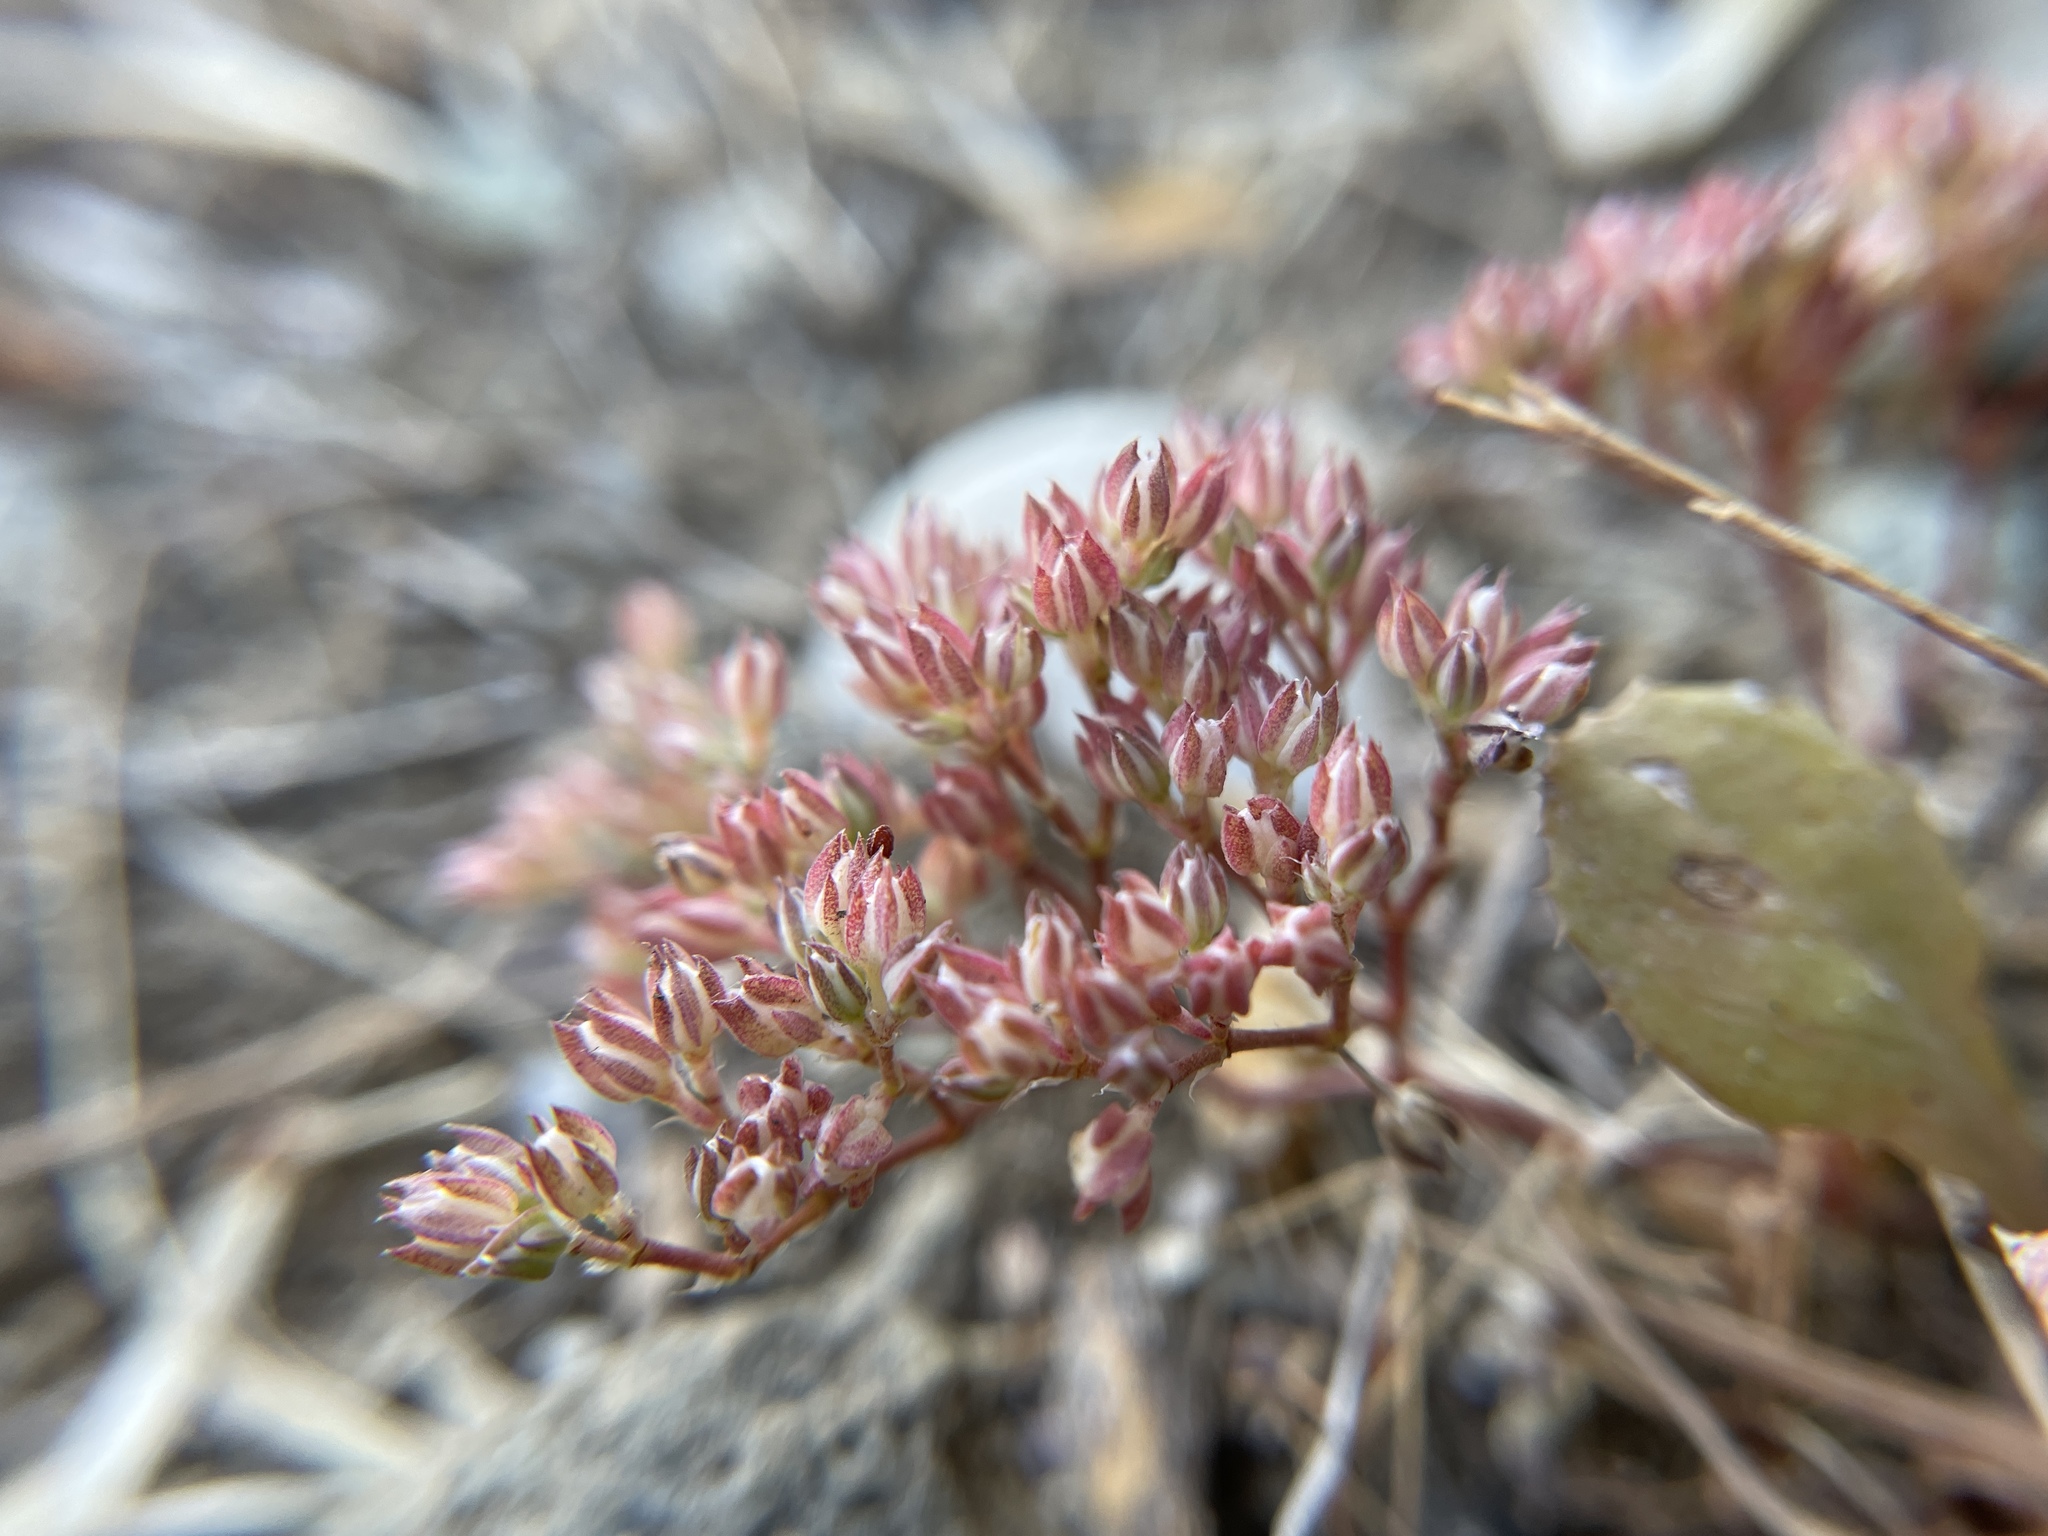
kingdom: Plantae
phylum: Tracheophyta
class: Magnoliopsida
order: Caryophyllales
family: Caryophyllaceae
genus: Polycarpon
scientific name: Polycarpon tetraphyllum
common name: Four-leaved all-seed
